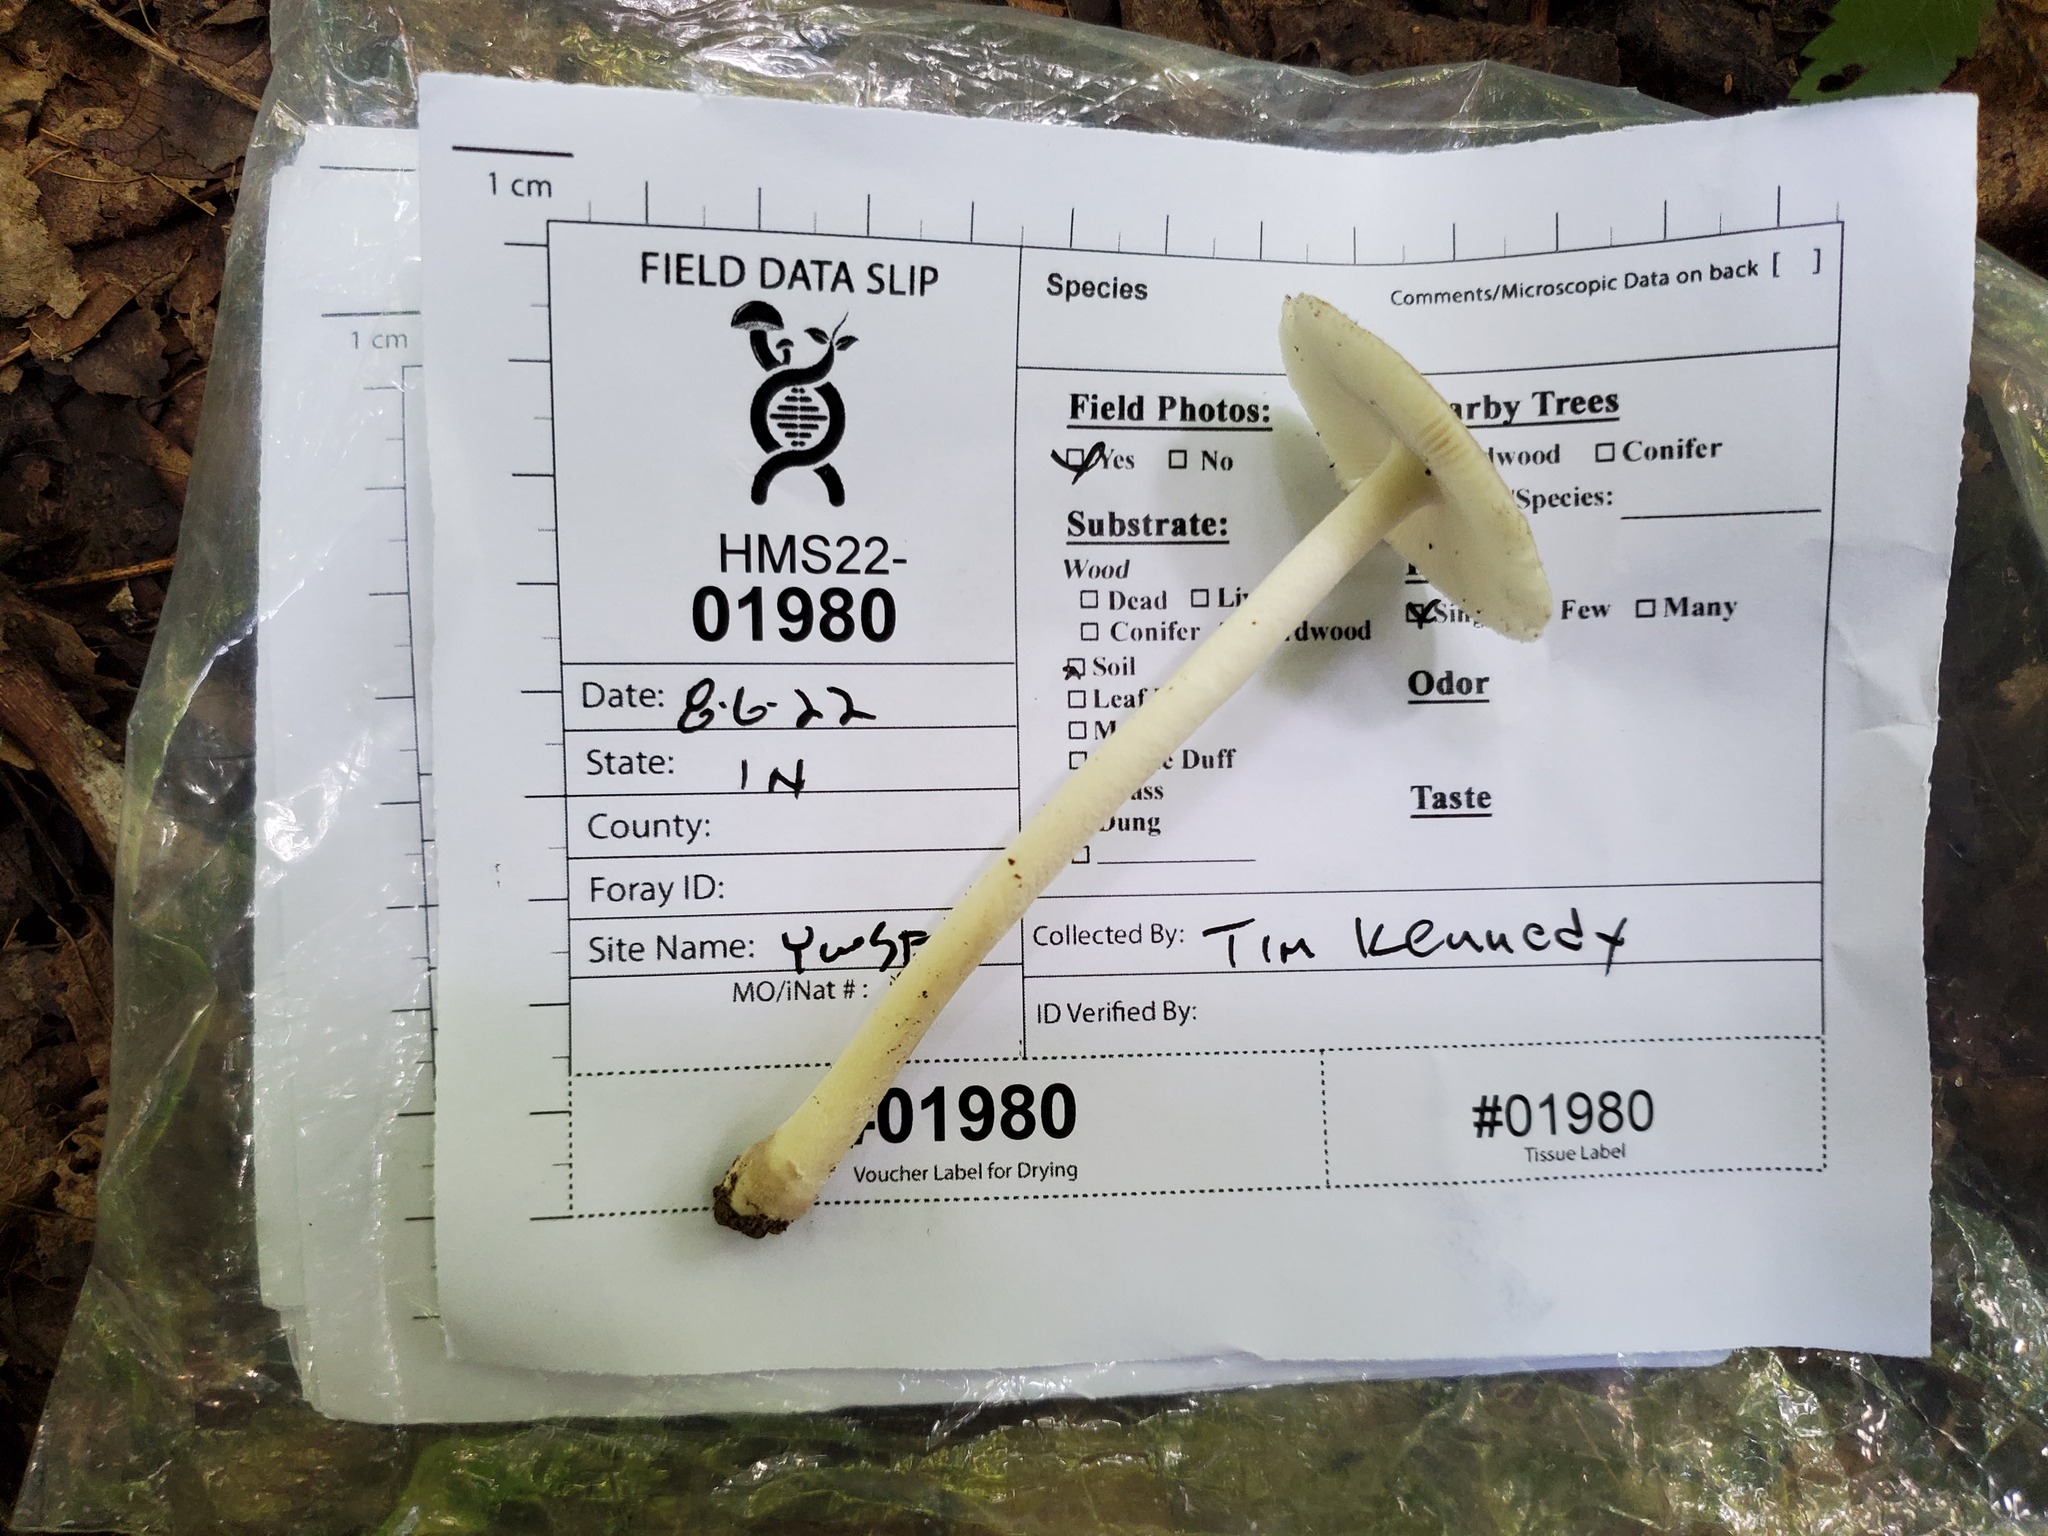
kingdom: Fungi
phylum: Basidiomycota
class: Agaricomycetes
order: Agaricales
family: Amanitaceae
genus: Amanita
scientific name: Amanita farinosa
